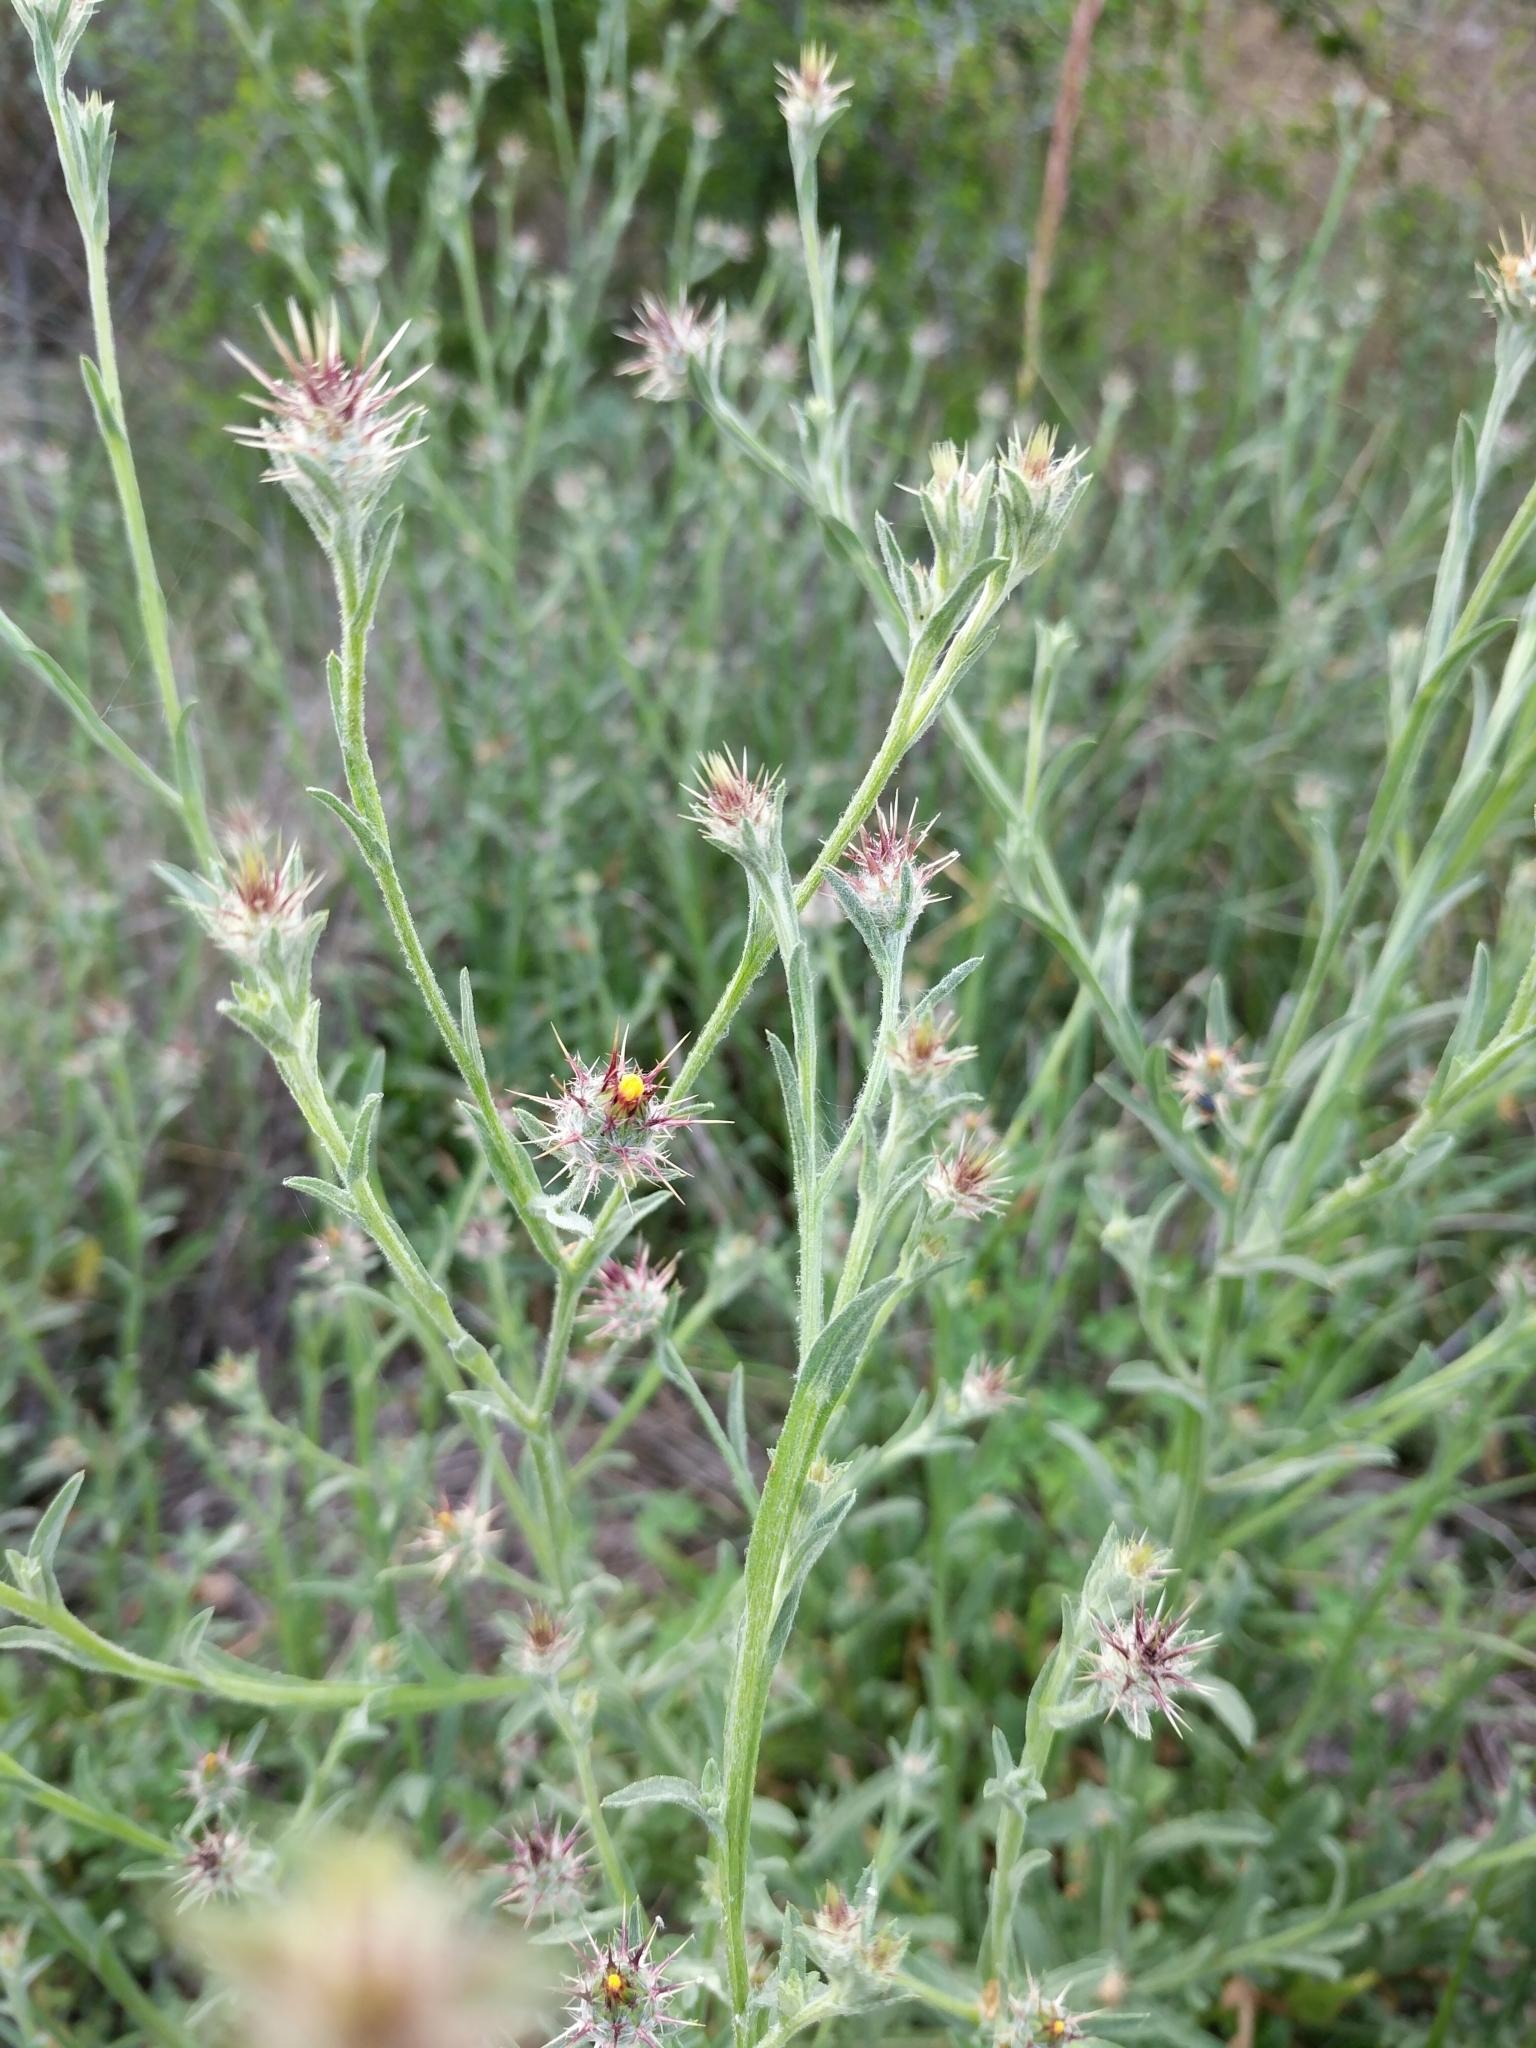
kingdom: Plantae
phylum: Tracheophyta
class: Magnoliopsida
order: Asterales
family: Asteraceae
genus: Centaurea
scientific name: Centaurea melitensis
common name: Maltese star-thistle
